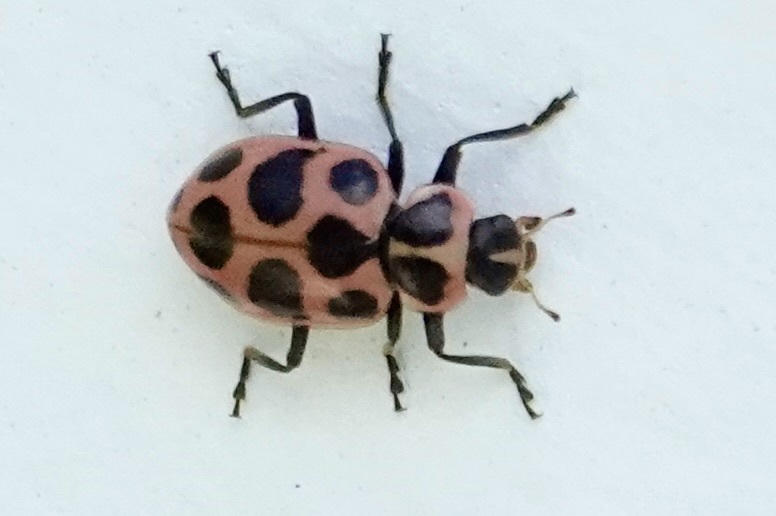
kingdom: Animalia
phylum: Arthropoda
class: Insecta
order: Coleoptera
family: Coccinellidae
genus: Coleomegilla
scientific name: Coleomegilla maculata
